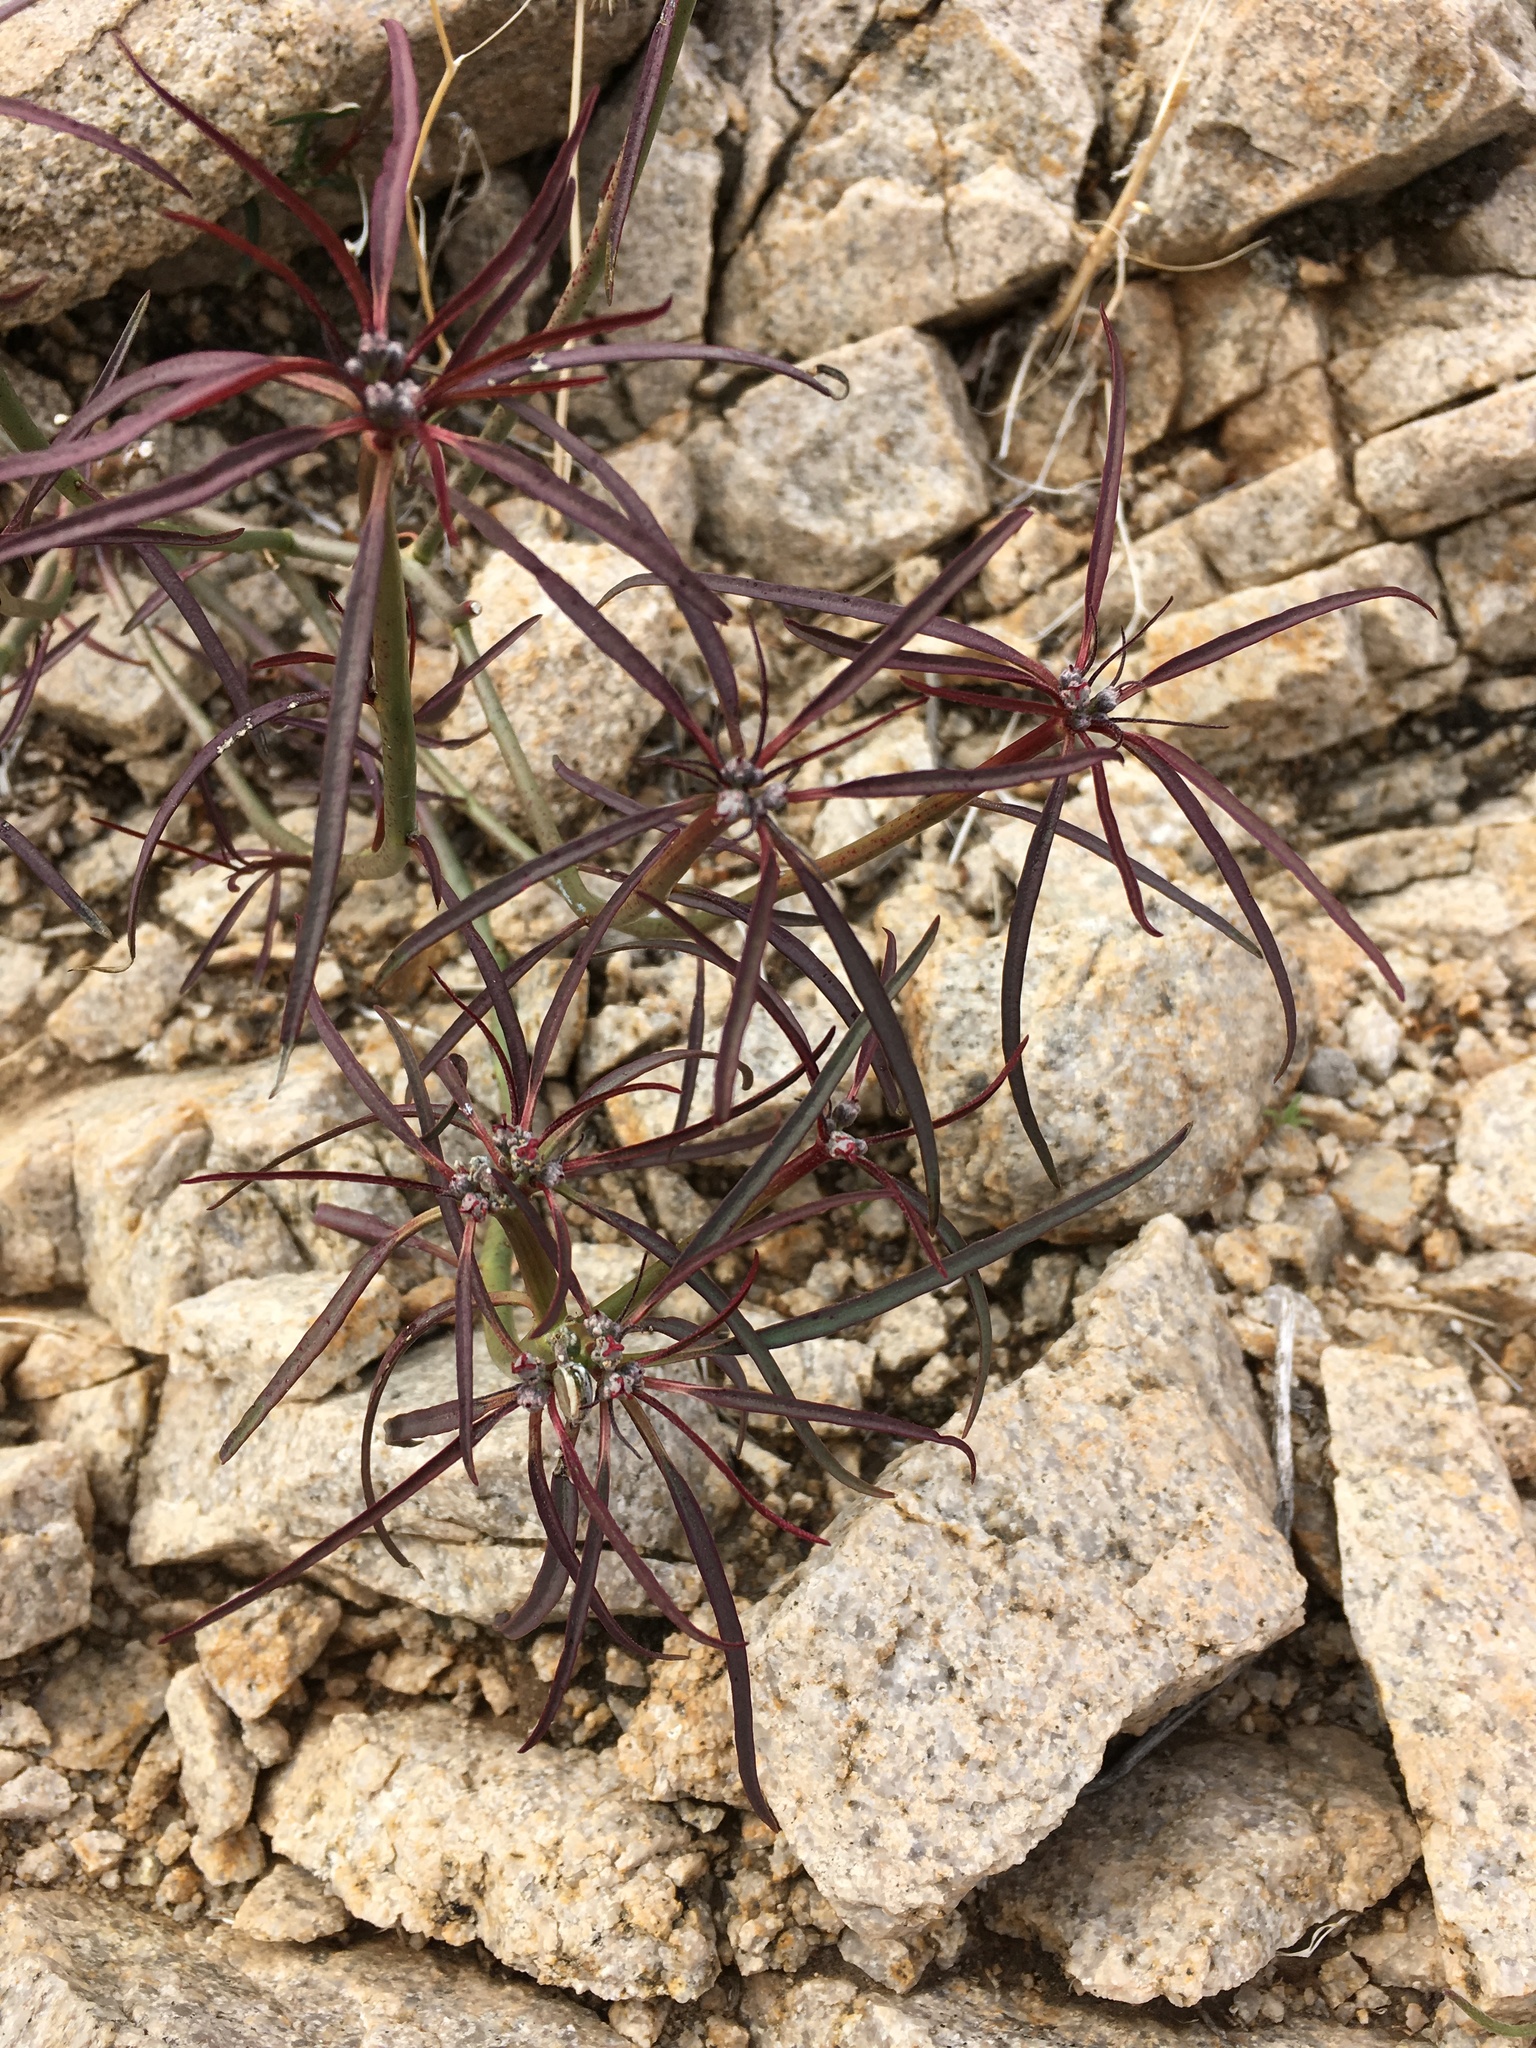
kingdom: Plantae
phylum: Tracheophyta
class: Magnoliopsida
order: Malpighiales
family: Euphorbiaceae
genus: Euphorbia
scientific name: Euphorbia eriantha
